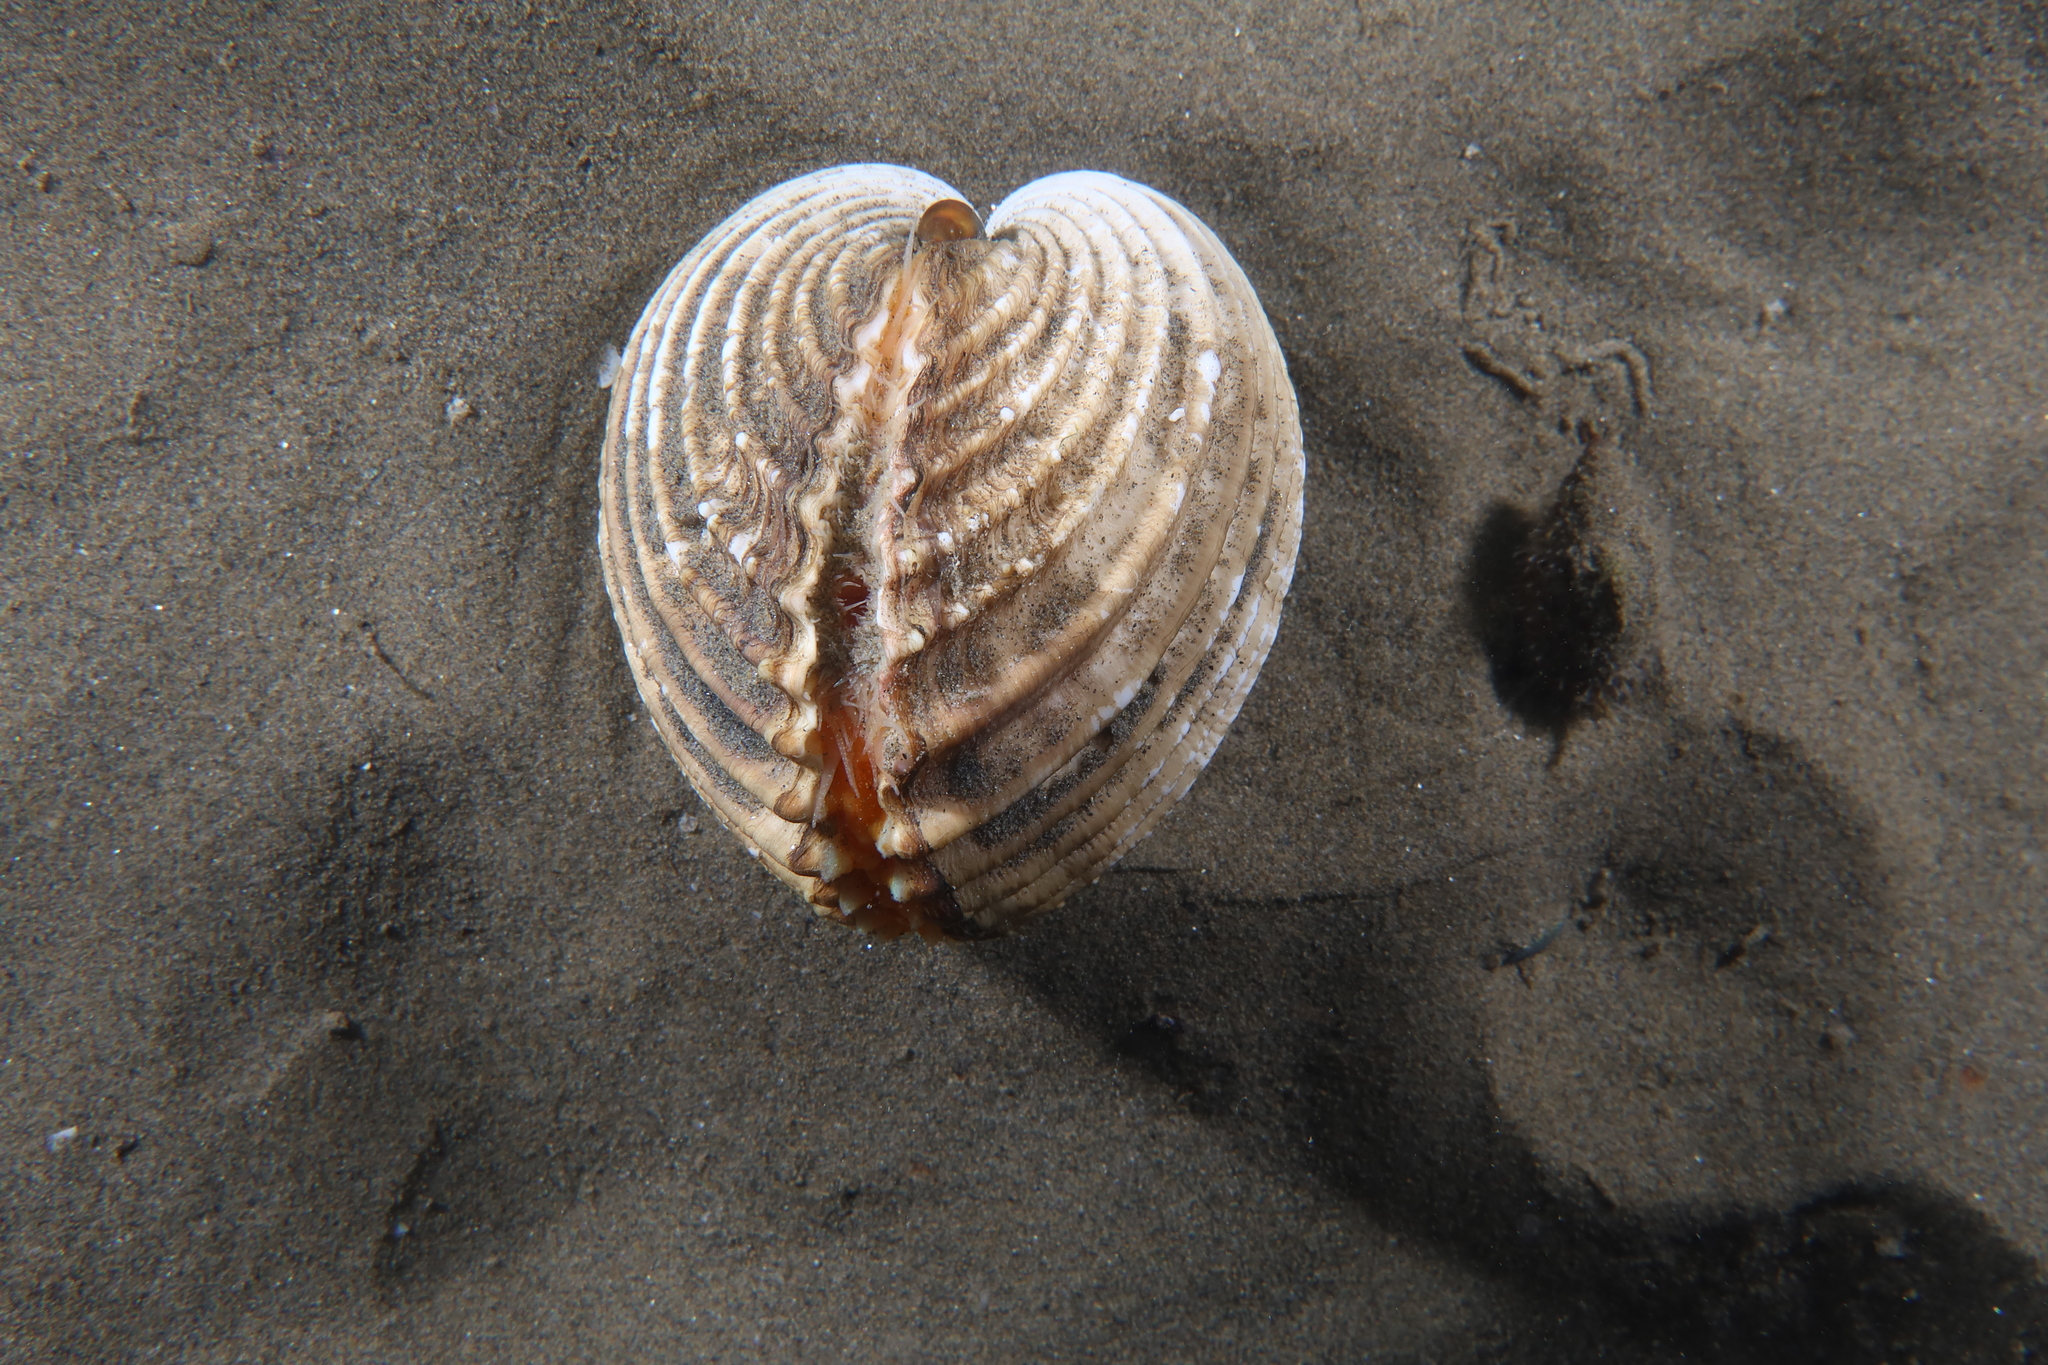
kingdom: Animalia
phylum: Mollusca
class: Bivalvia
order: Cardiida
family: Cardiidae
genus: Acanthocardia
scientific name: Acanthocardia tuberculata
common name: Rough cockle
